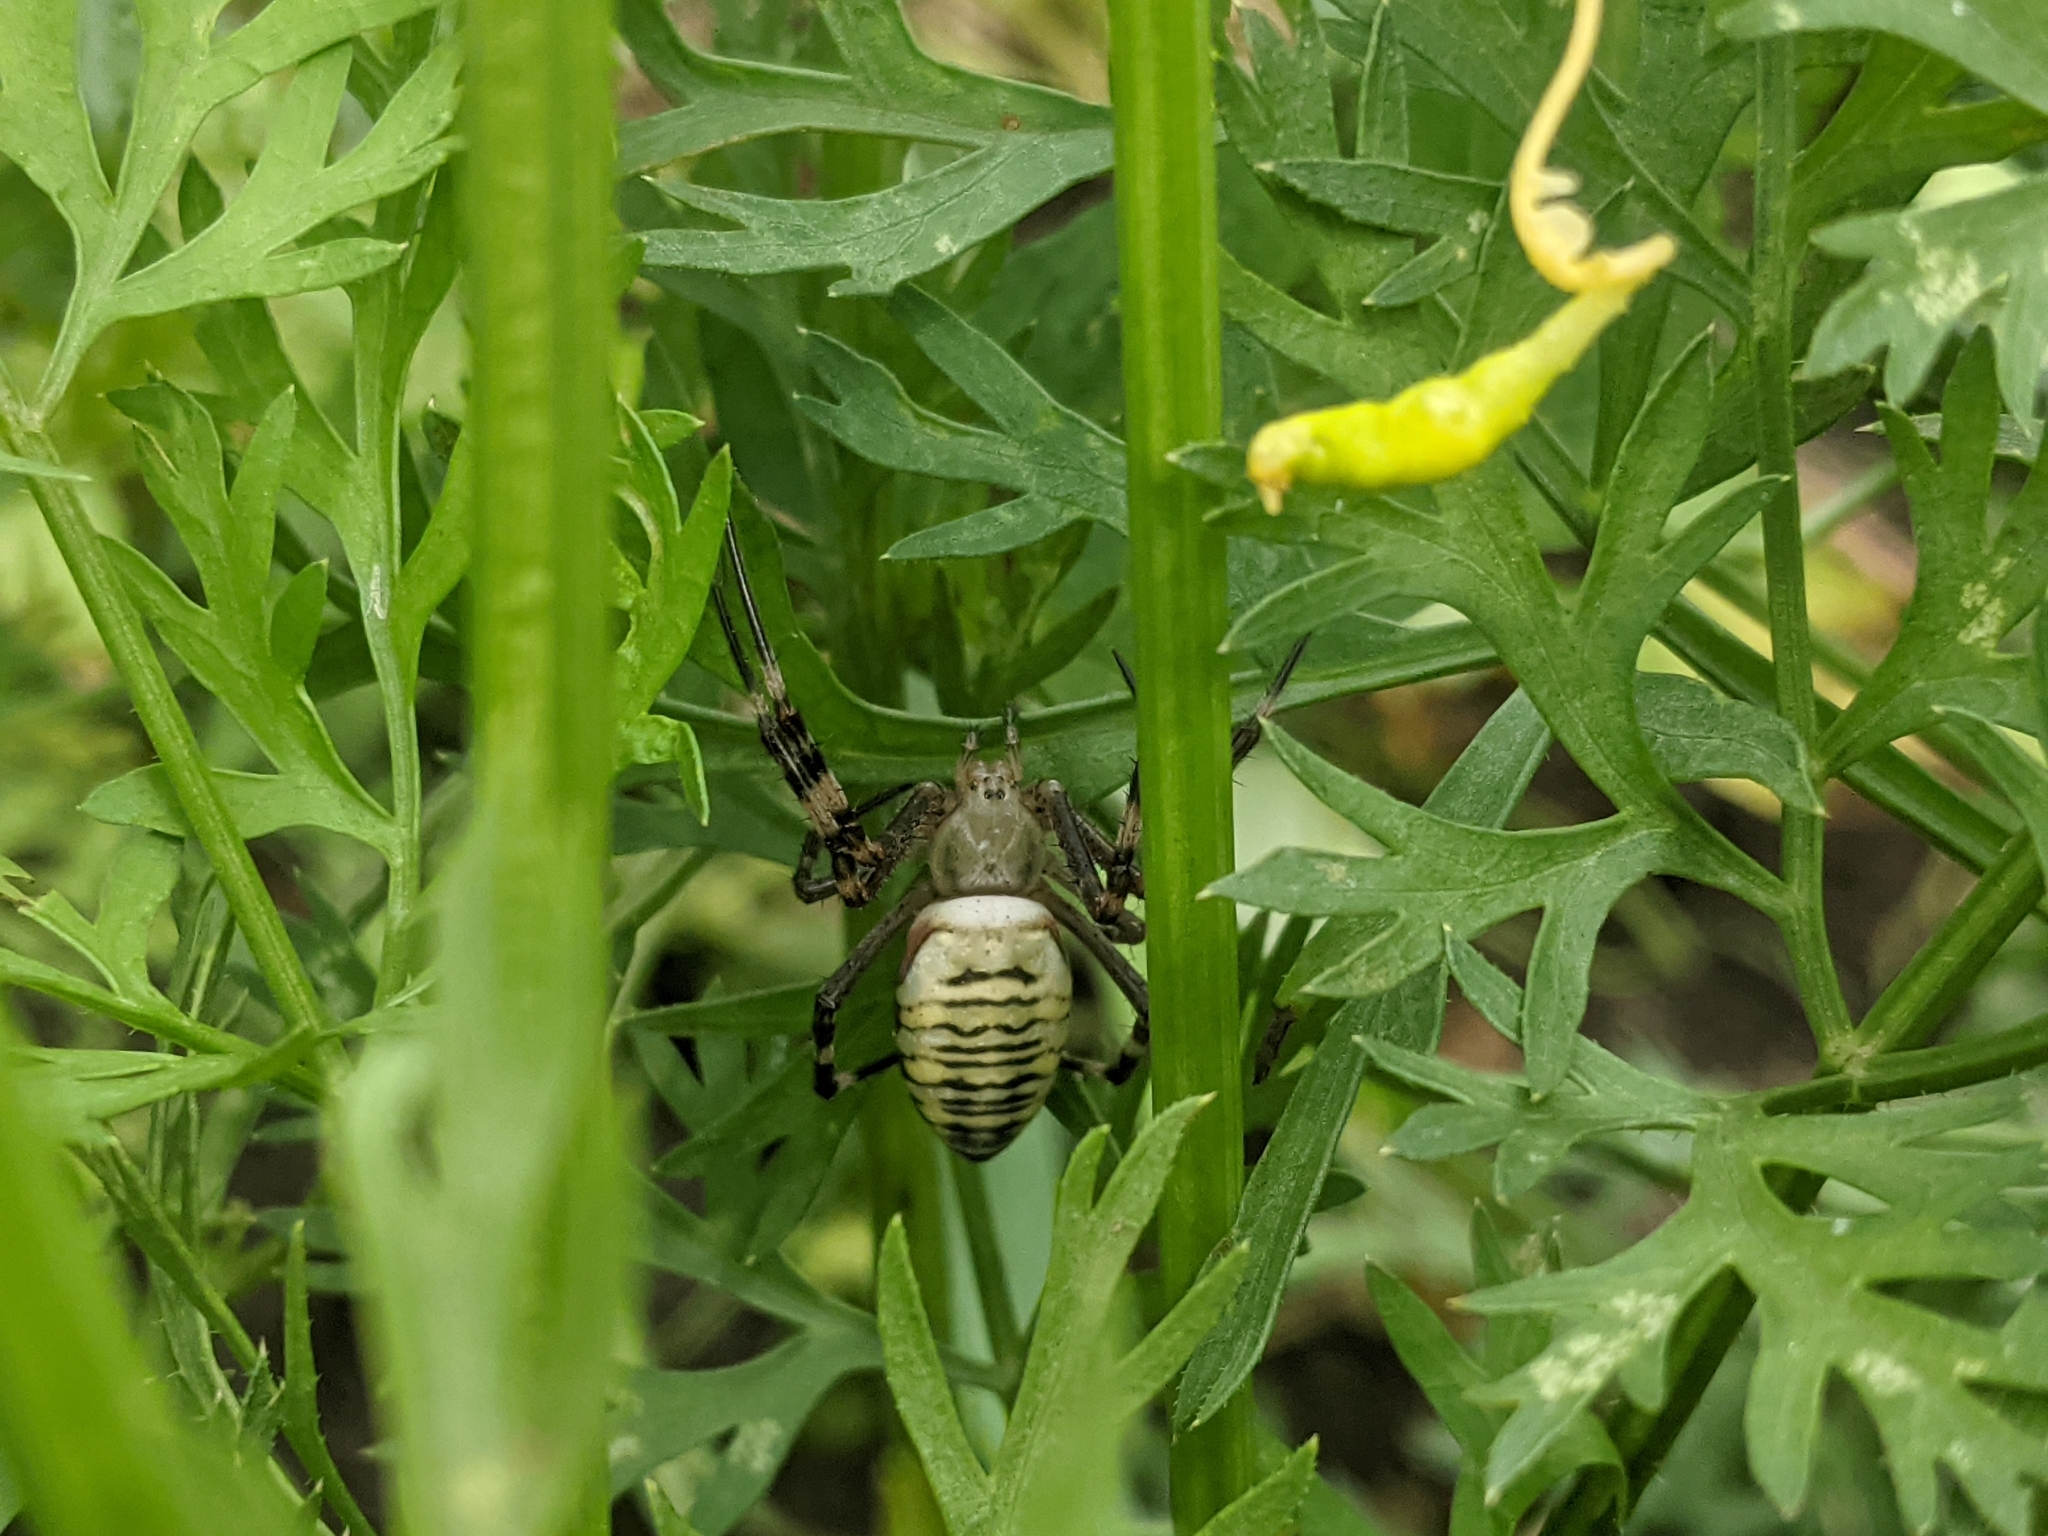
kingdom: Animalia
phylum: Arthropoda
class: Arachnida
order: Araneae
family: Araneidae
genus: Argiope
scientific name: Argiope bruennichi
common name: Wasp spider
